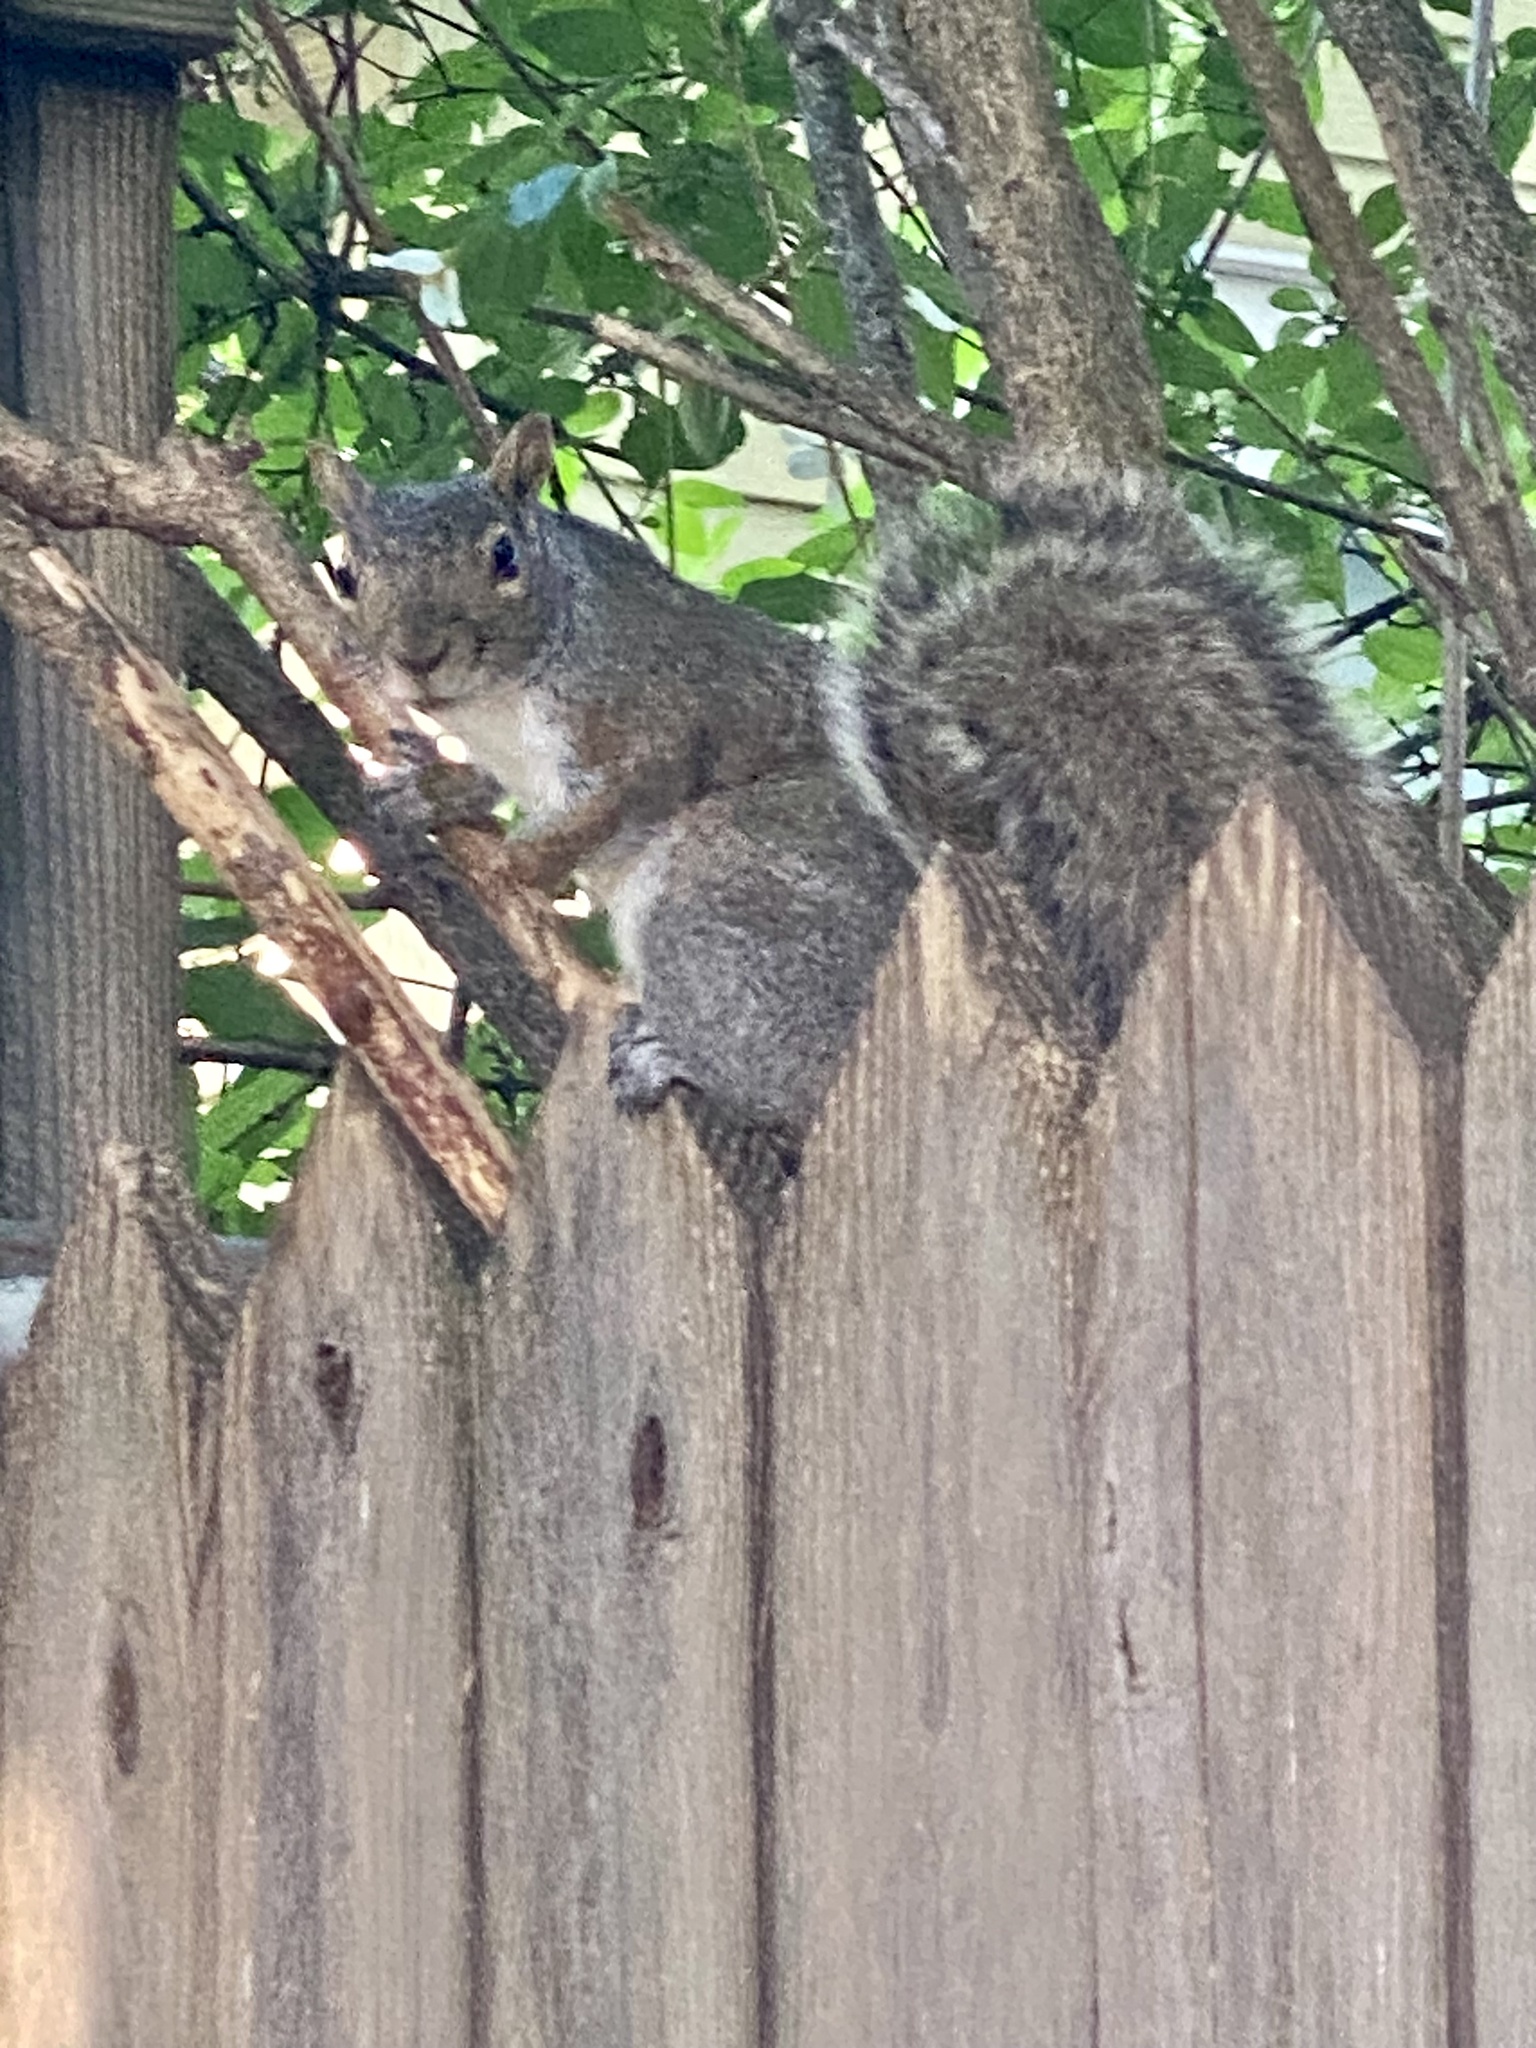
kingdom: Animalia
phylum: Chordata
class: Mammalia
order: Rodentia
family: Sciuridae
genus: Sciurus
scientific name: Sciurus carolinensis
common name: Eastern gray squirrel
